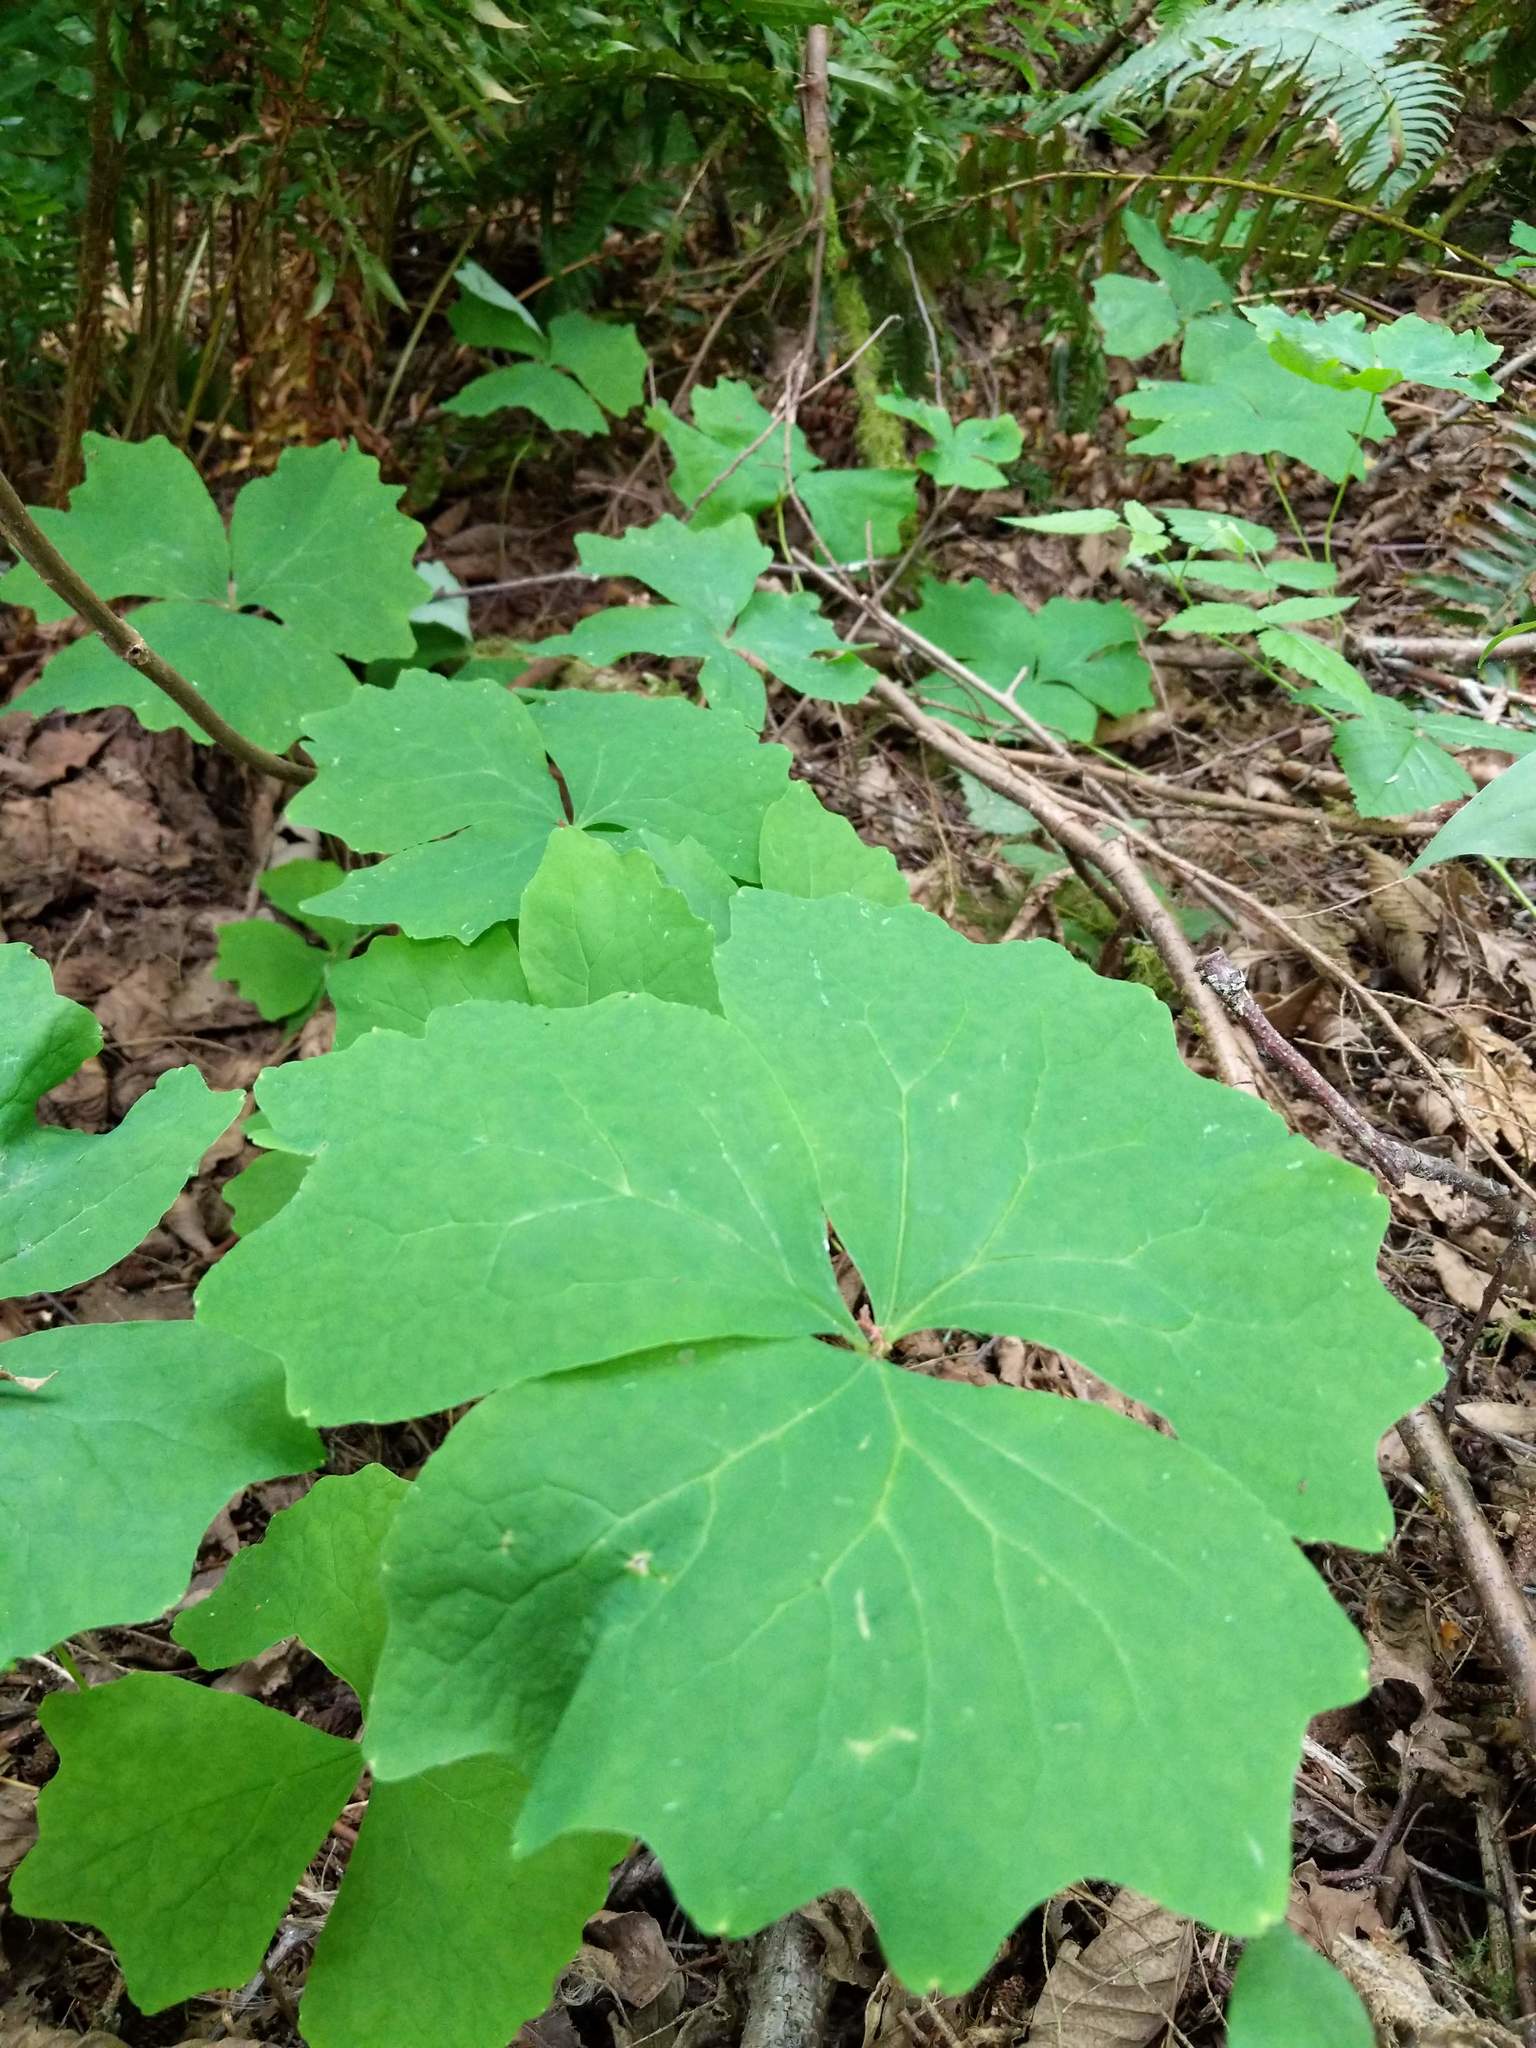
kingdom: Plantae
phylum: Tracheophyta
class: Magnoliopsida
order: Ranunculales
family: Berberidaceae
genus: Achlys
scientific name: Achlys triphylla
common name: Vanilla-leaf
